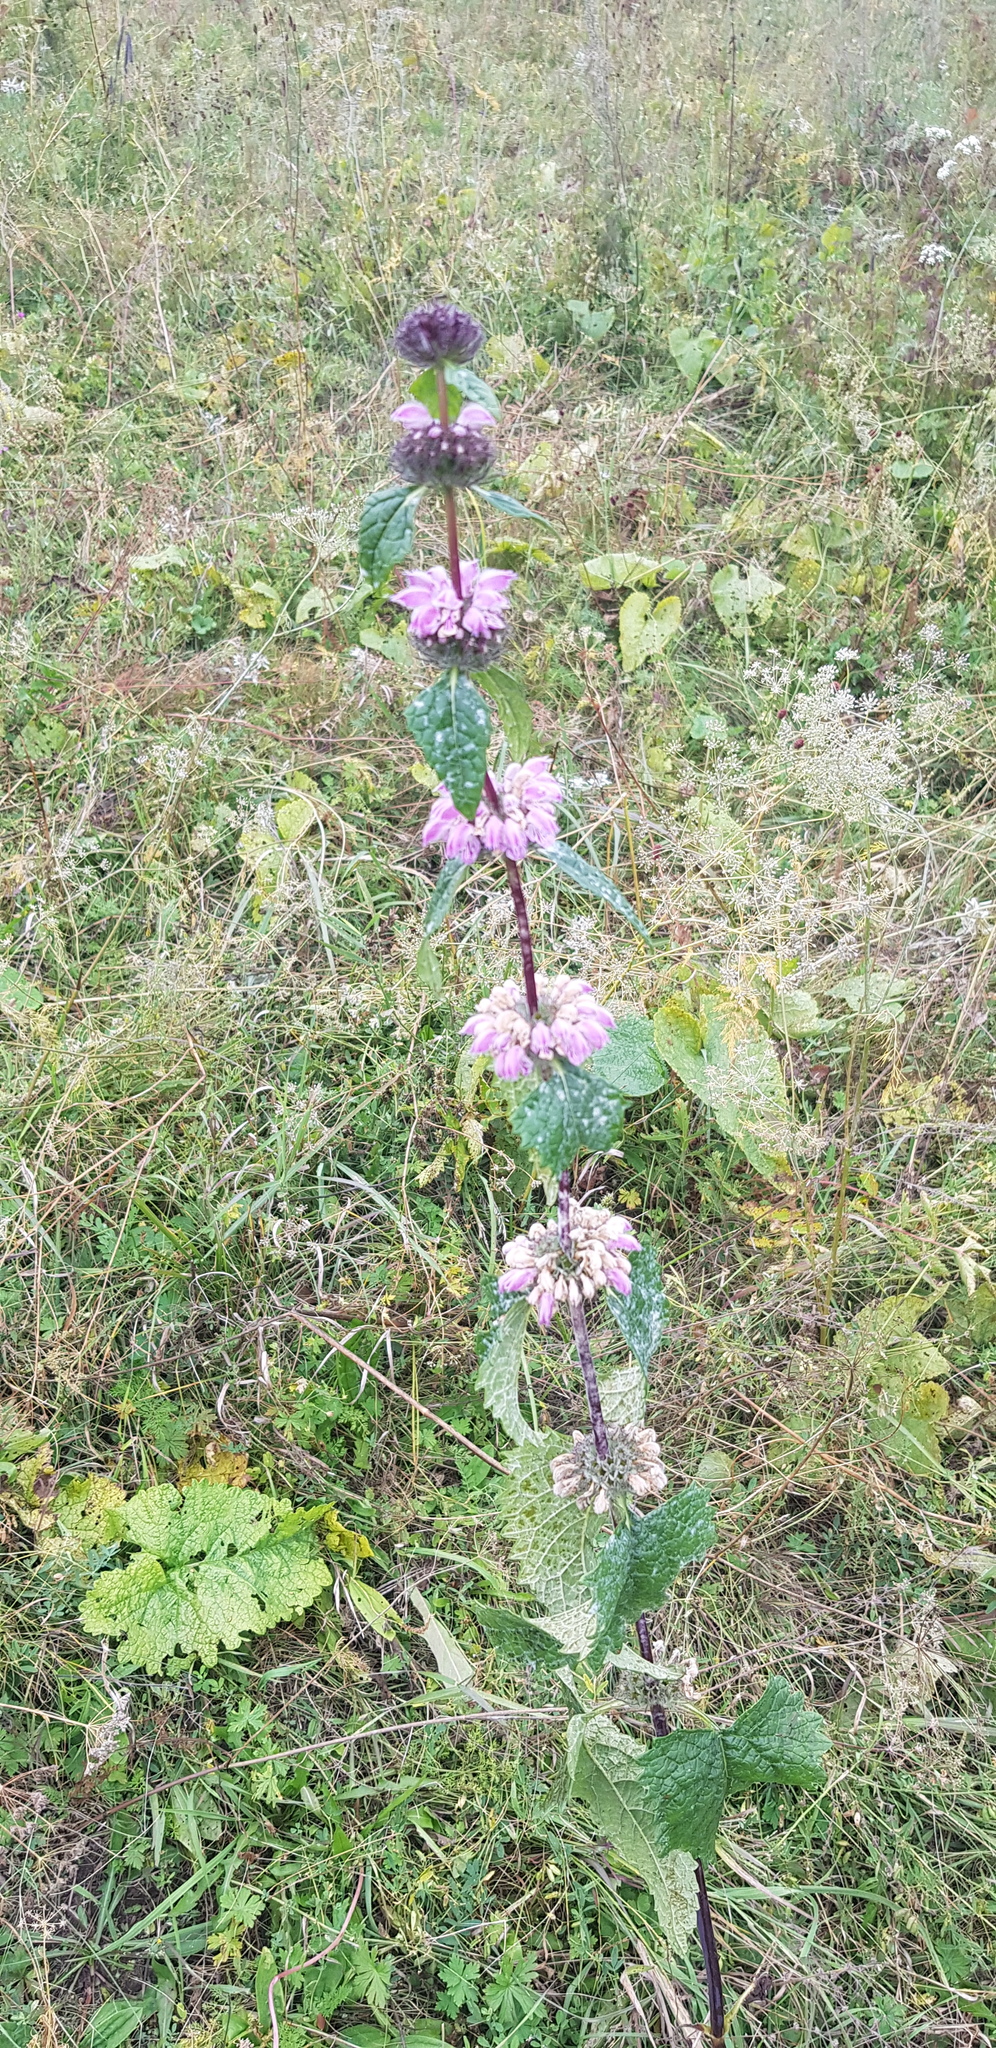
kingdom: Plantae
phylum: Tracheophyta
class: Magnoliopsida
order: Lamiales
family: Lamiaceae
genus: Phlomoides
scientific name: Phlomoides tuberosa
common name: Tuberous jerusalem sage
